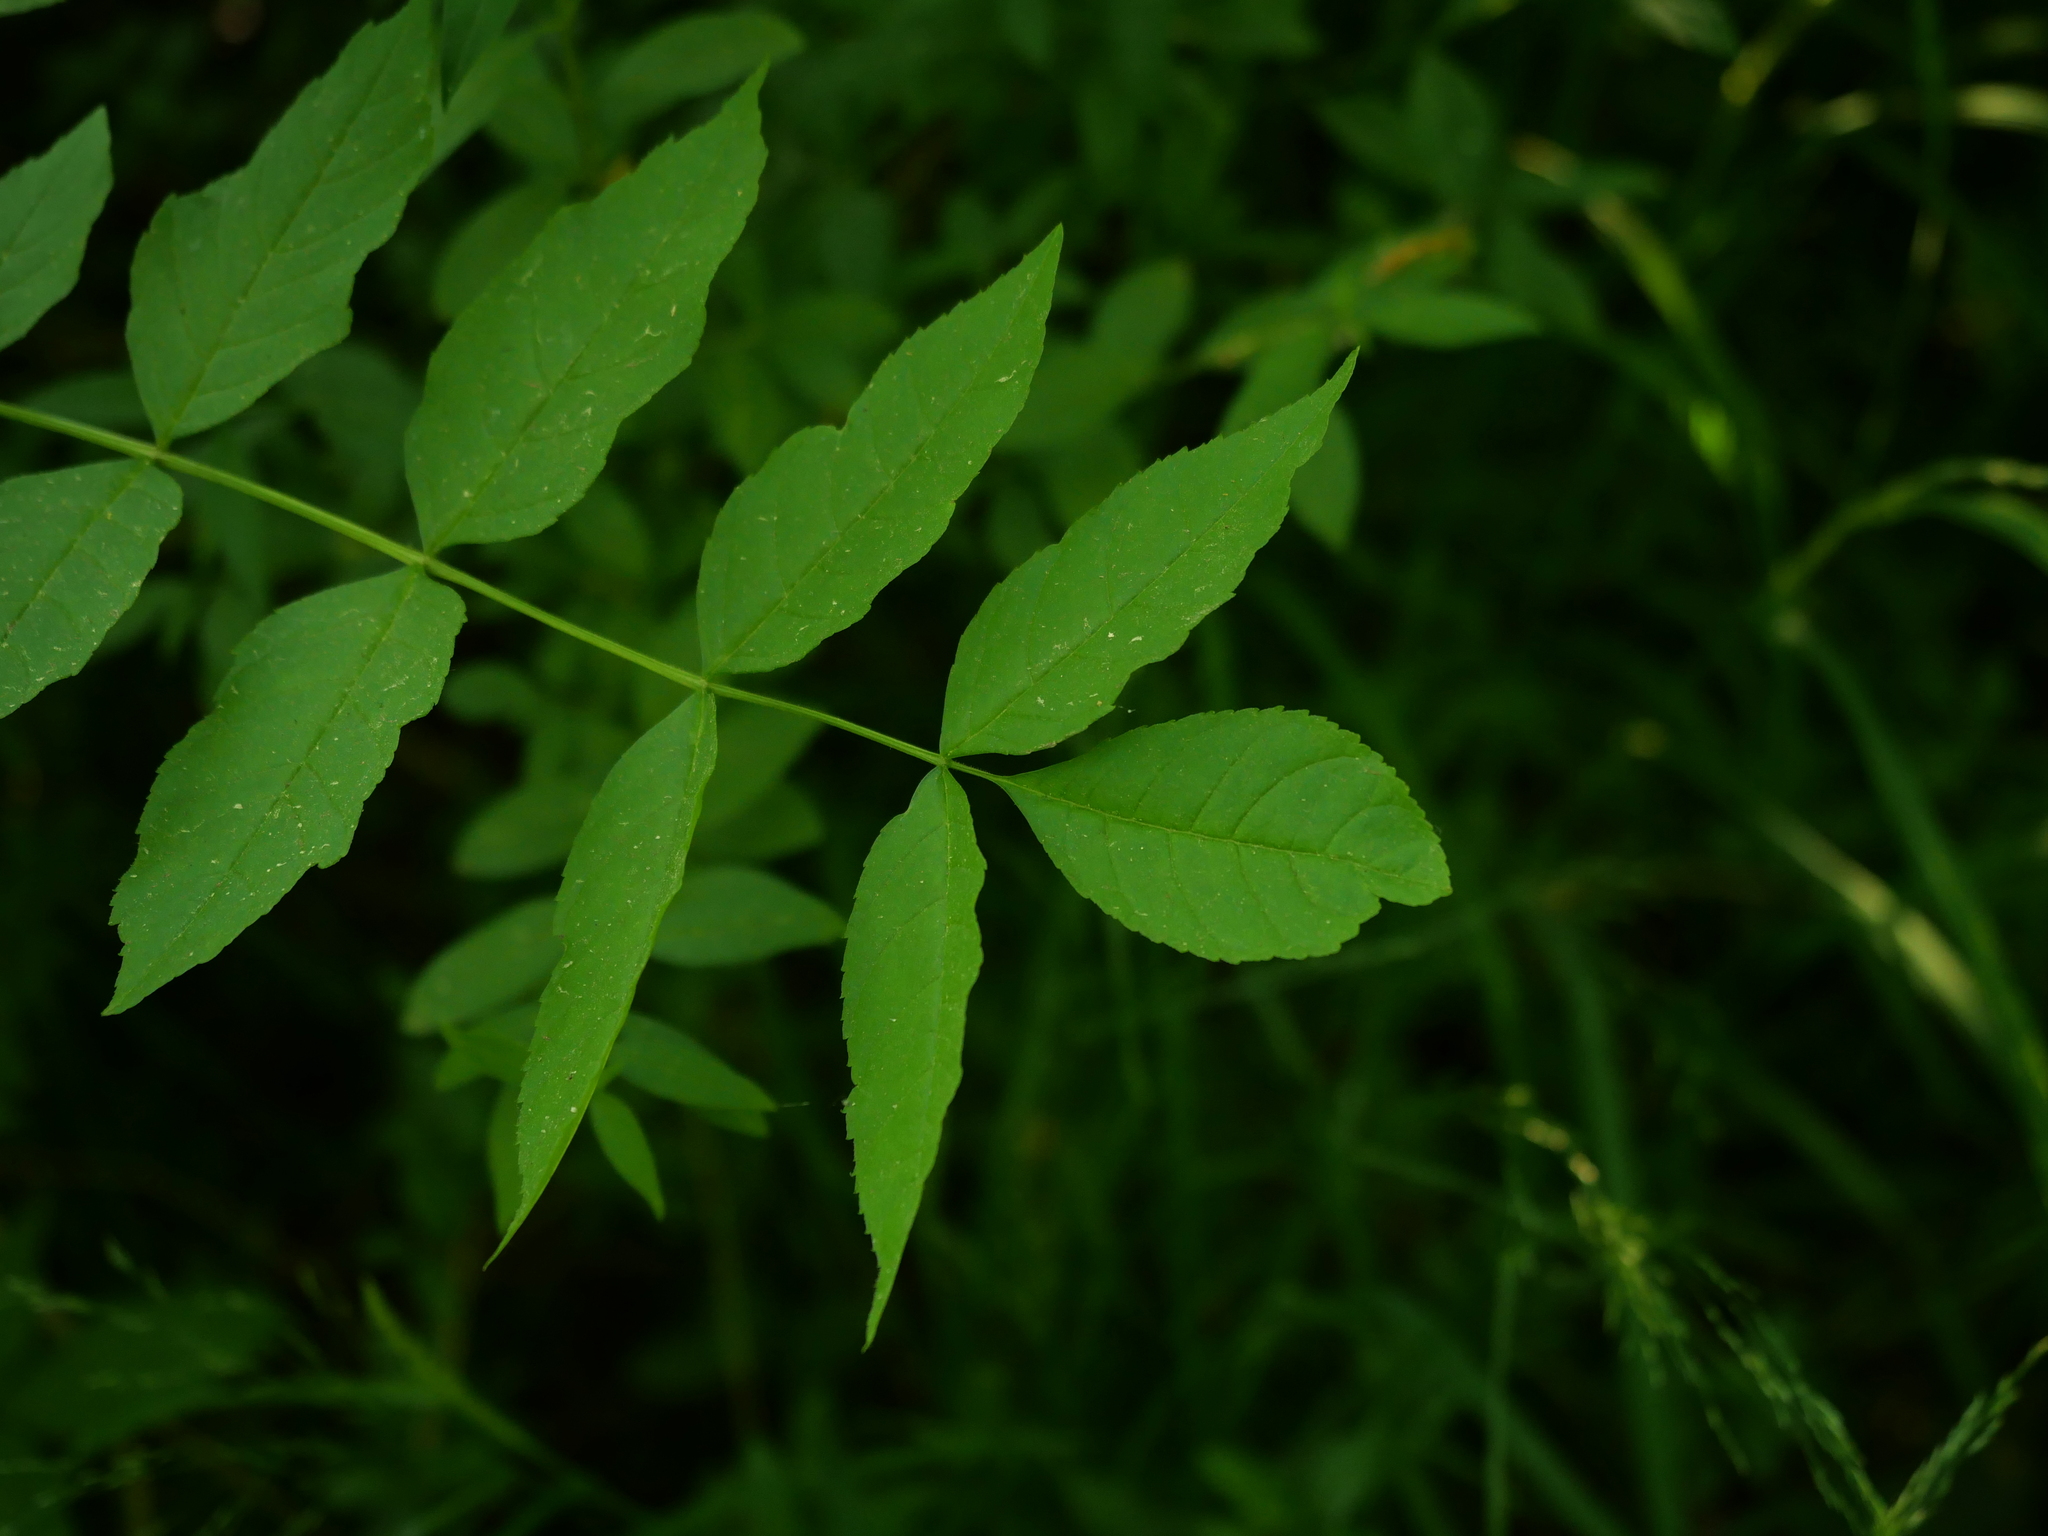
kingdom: Plantae
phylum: Tracheophyta
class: Magnoliopsida
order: Lamiales
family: Oleaceae
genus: Fraxinus
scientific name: Fraxinus excelsior
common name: European ash
